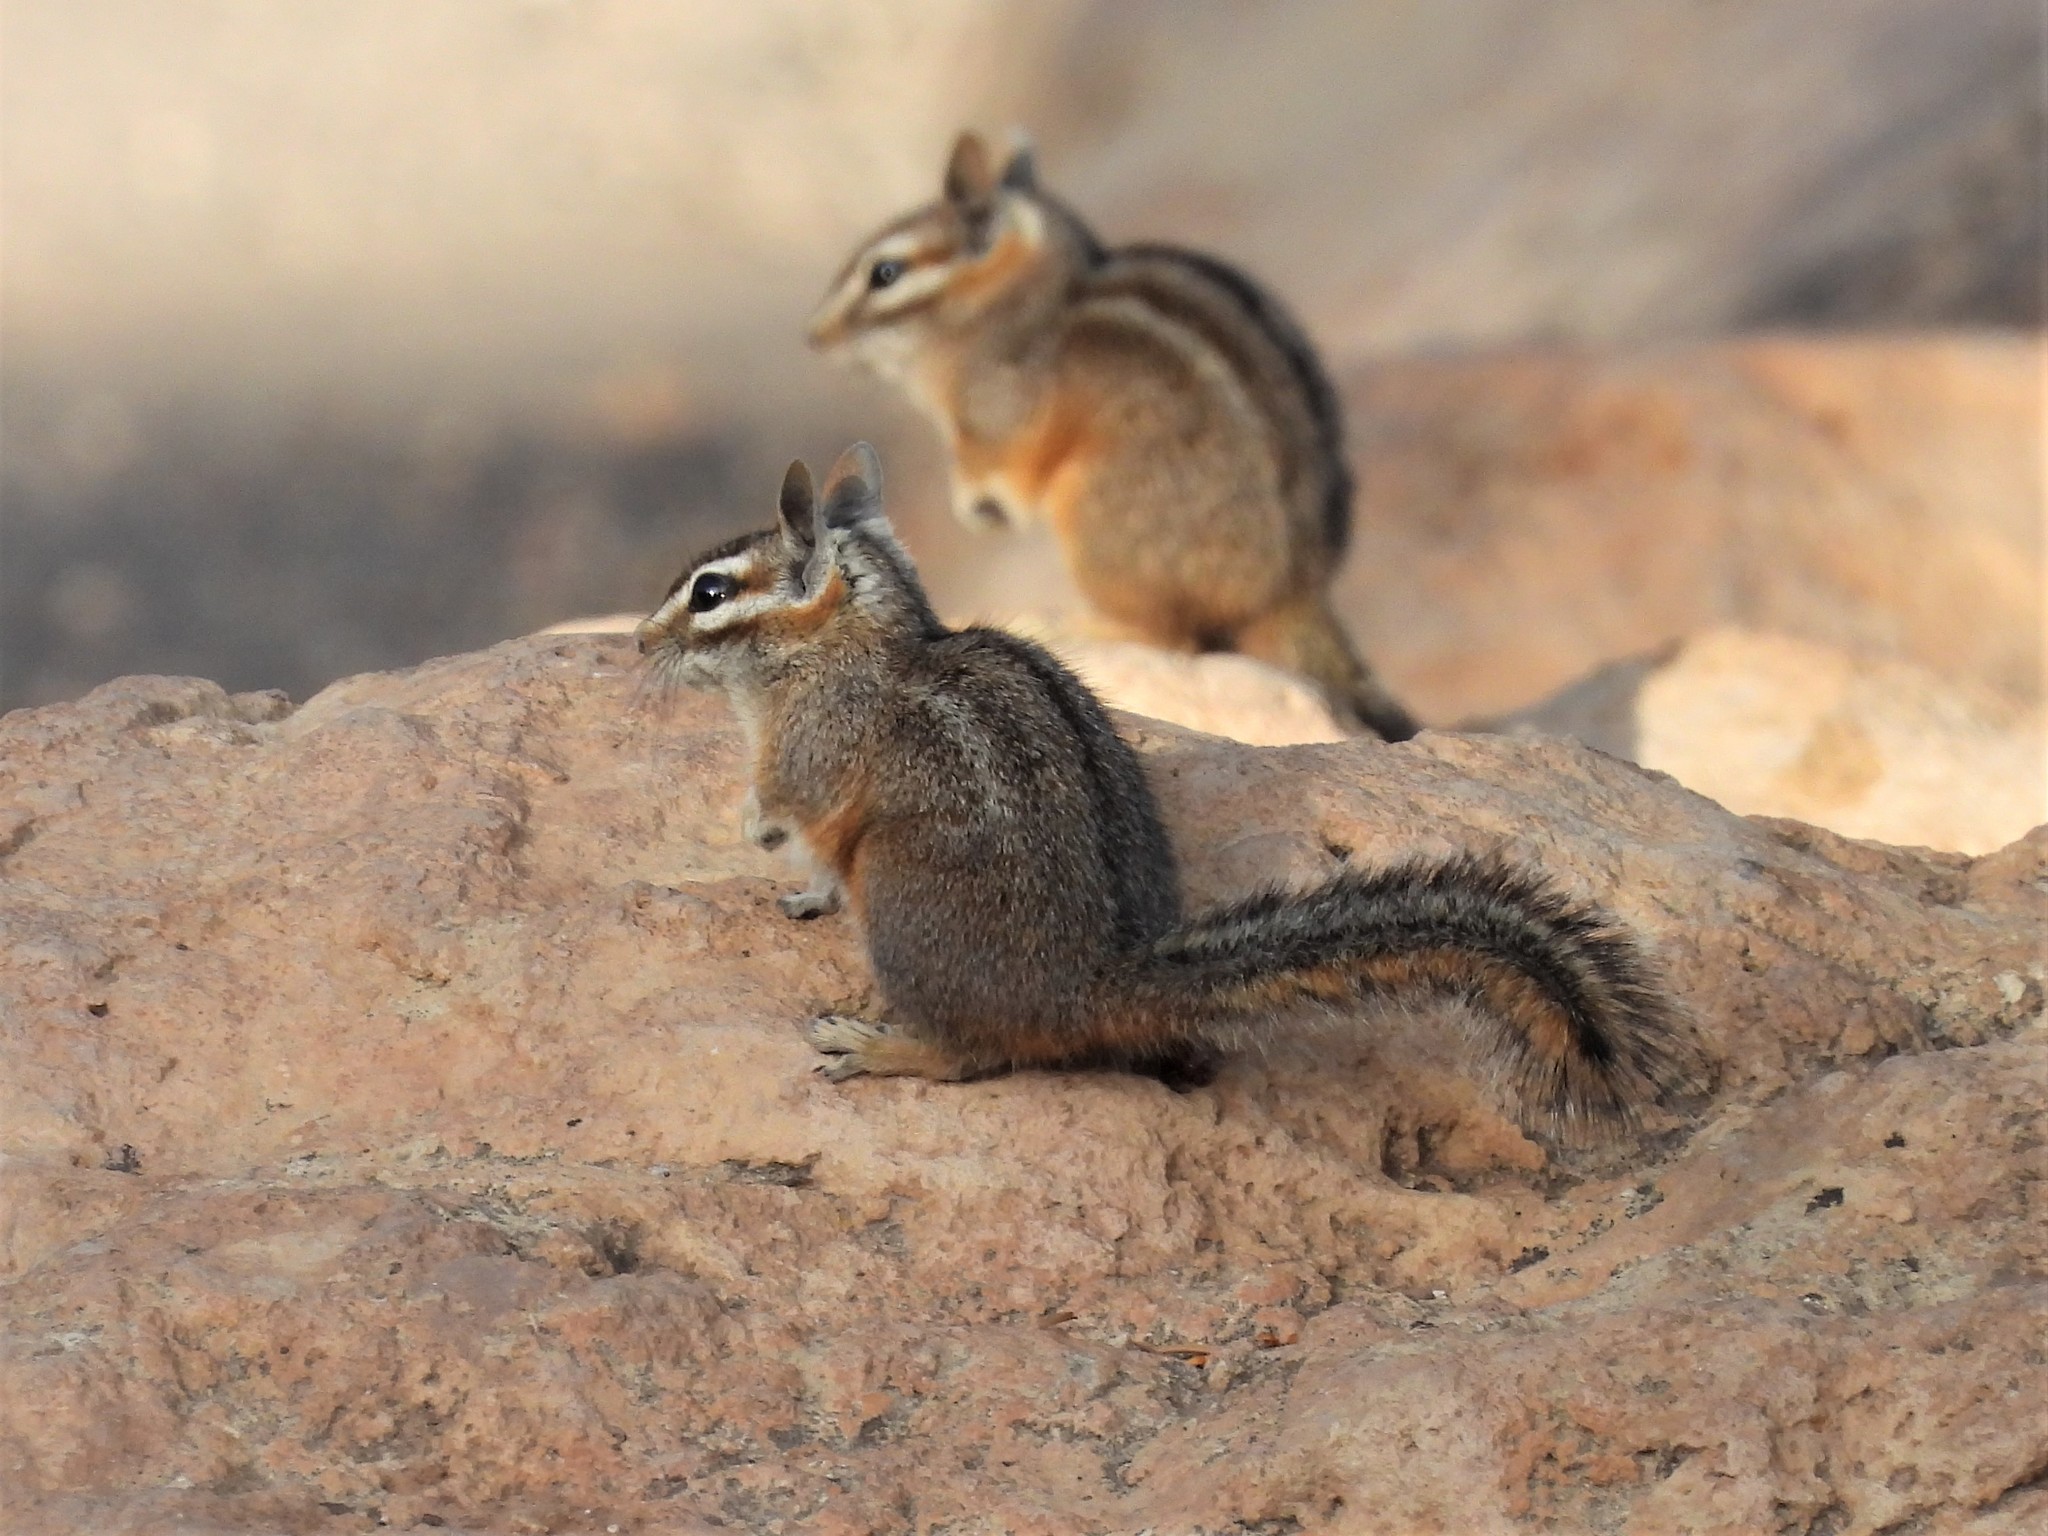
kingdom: Animalia
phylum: Chordata
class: Mammalia
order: Rodentia
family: Sciuridae
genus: Tamias
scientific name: Tamias dorsalis
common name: Cliff chipmunk
